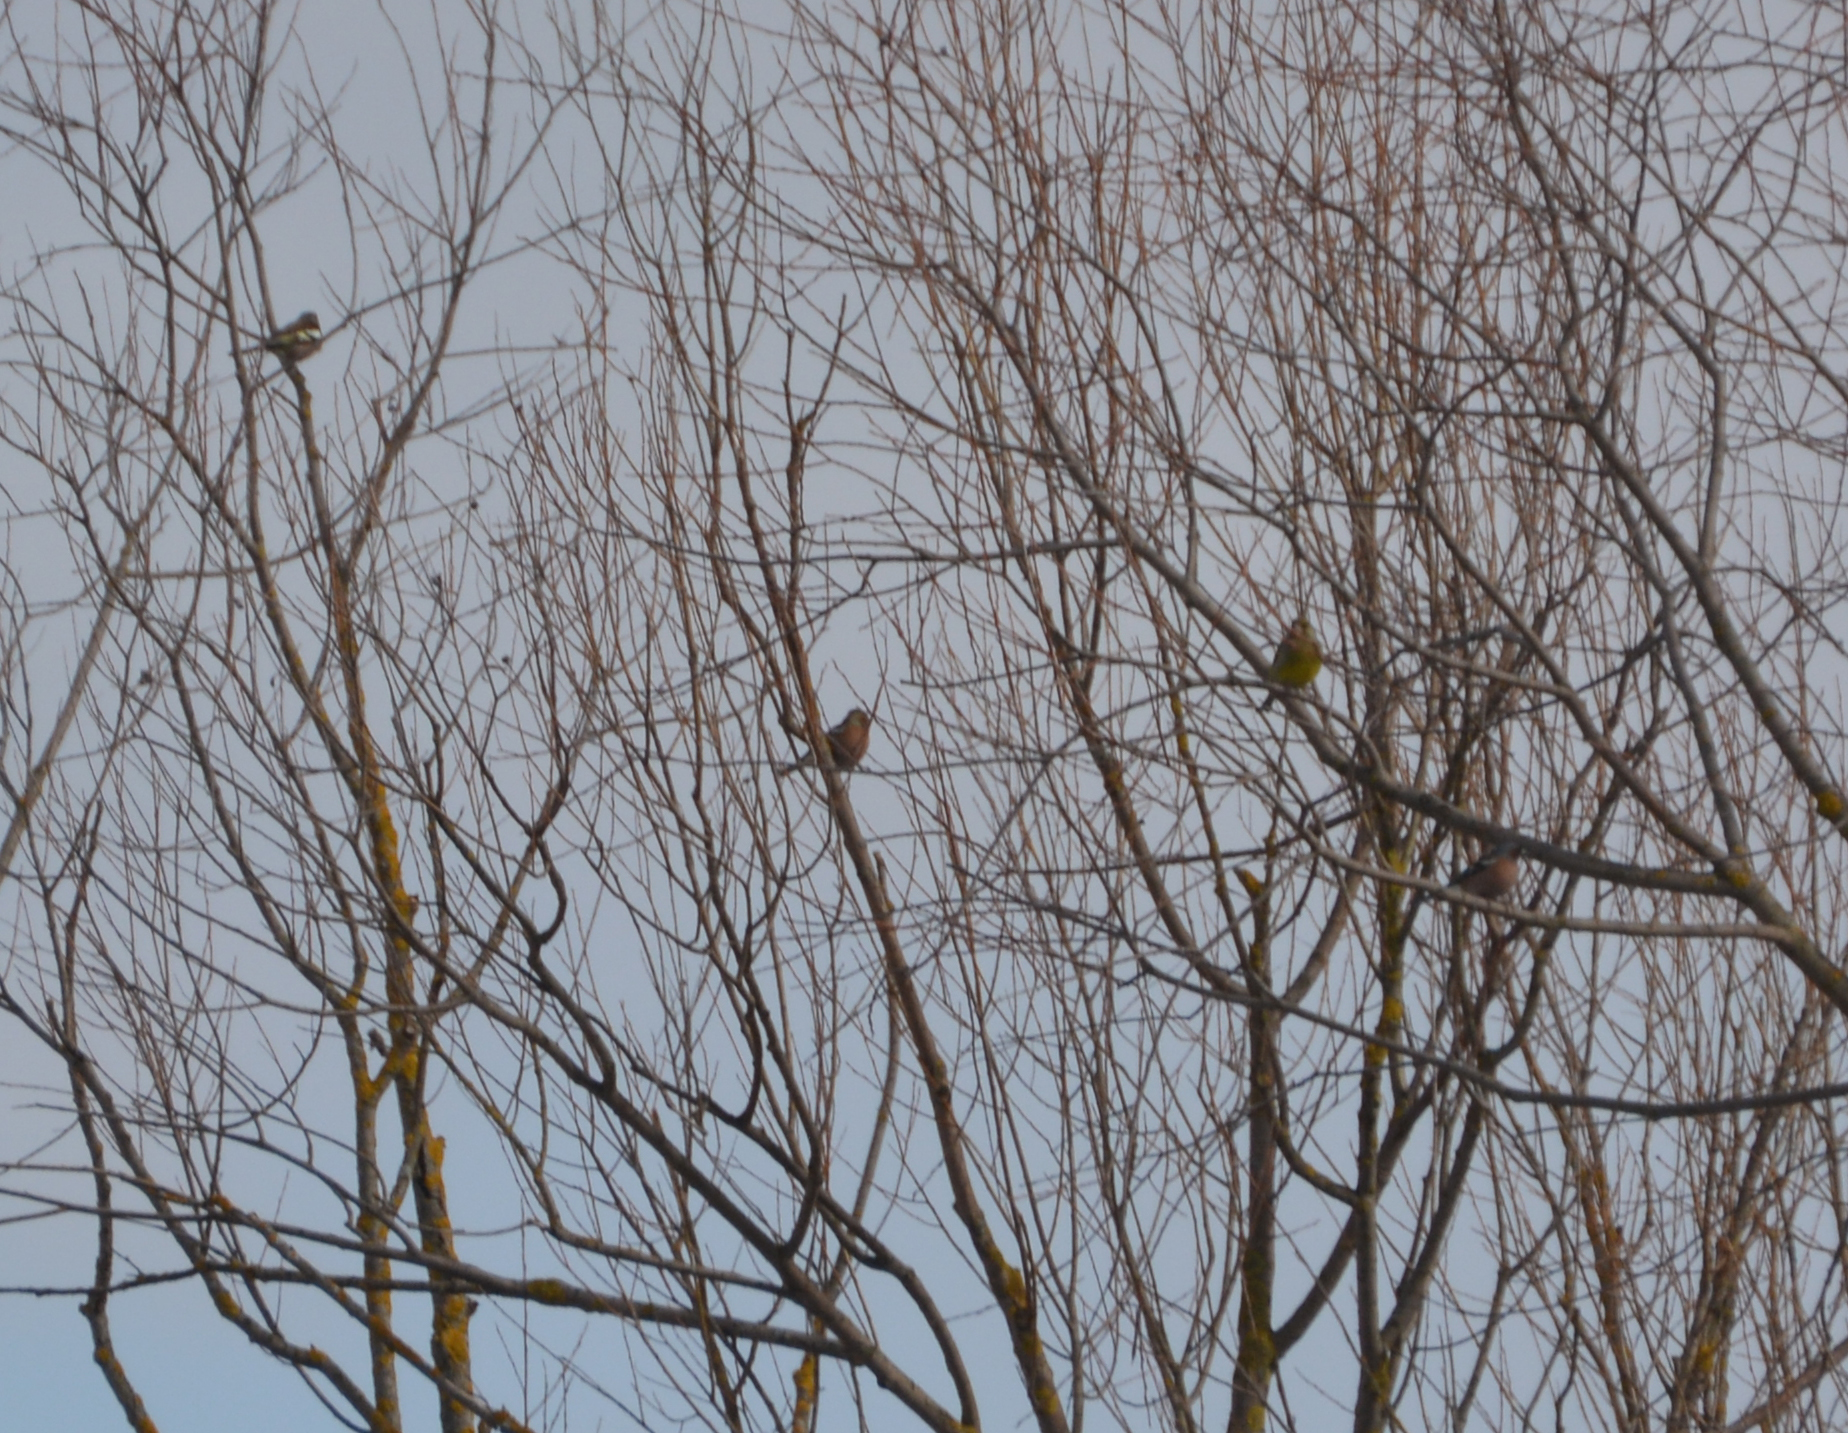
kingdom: Animalia
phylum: Chordata
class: Aves
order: Passeriformes
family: Fringillidae
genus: Fringilla
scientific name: Fringilla coelebs
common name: Common chaffinch
